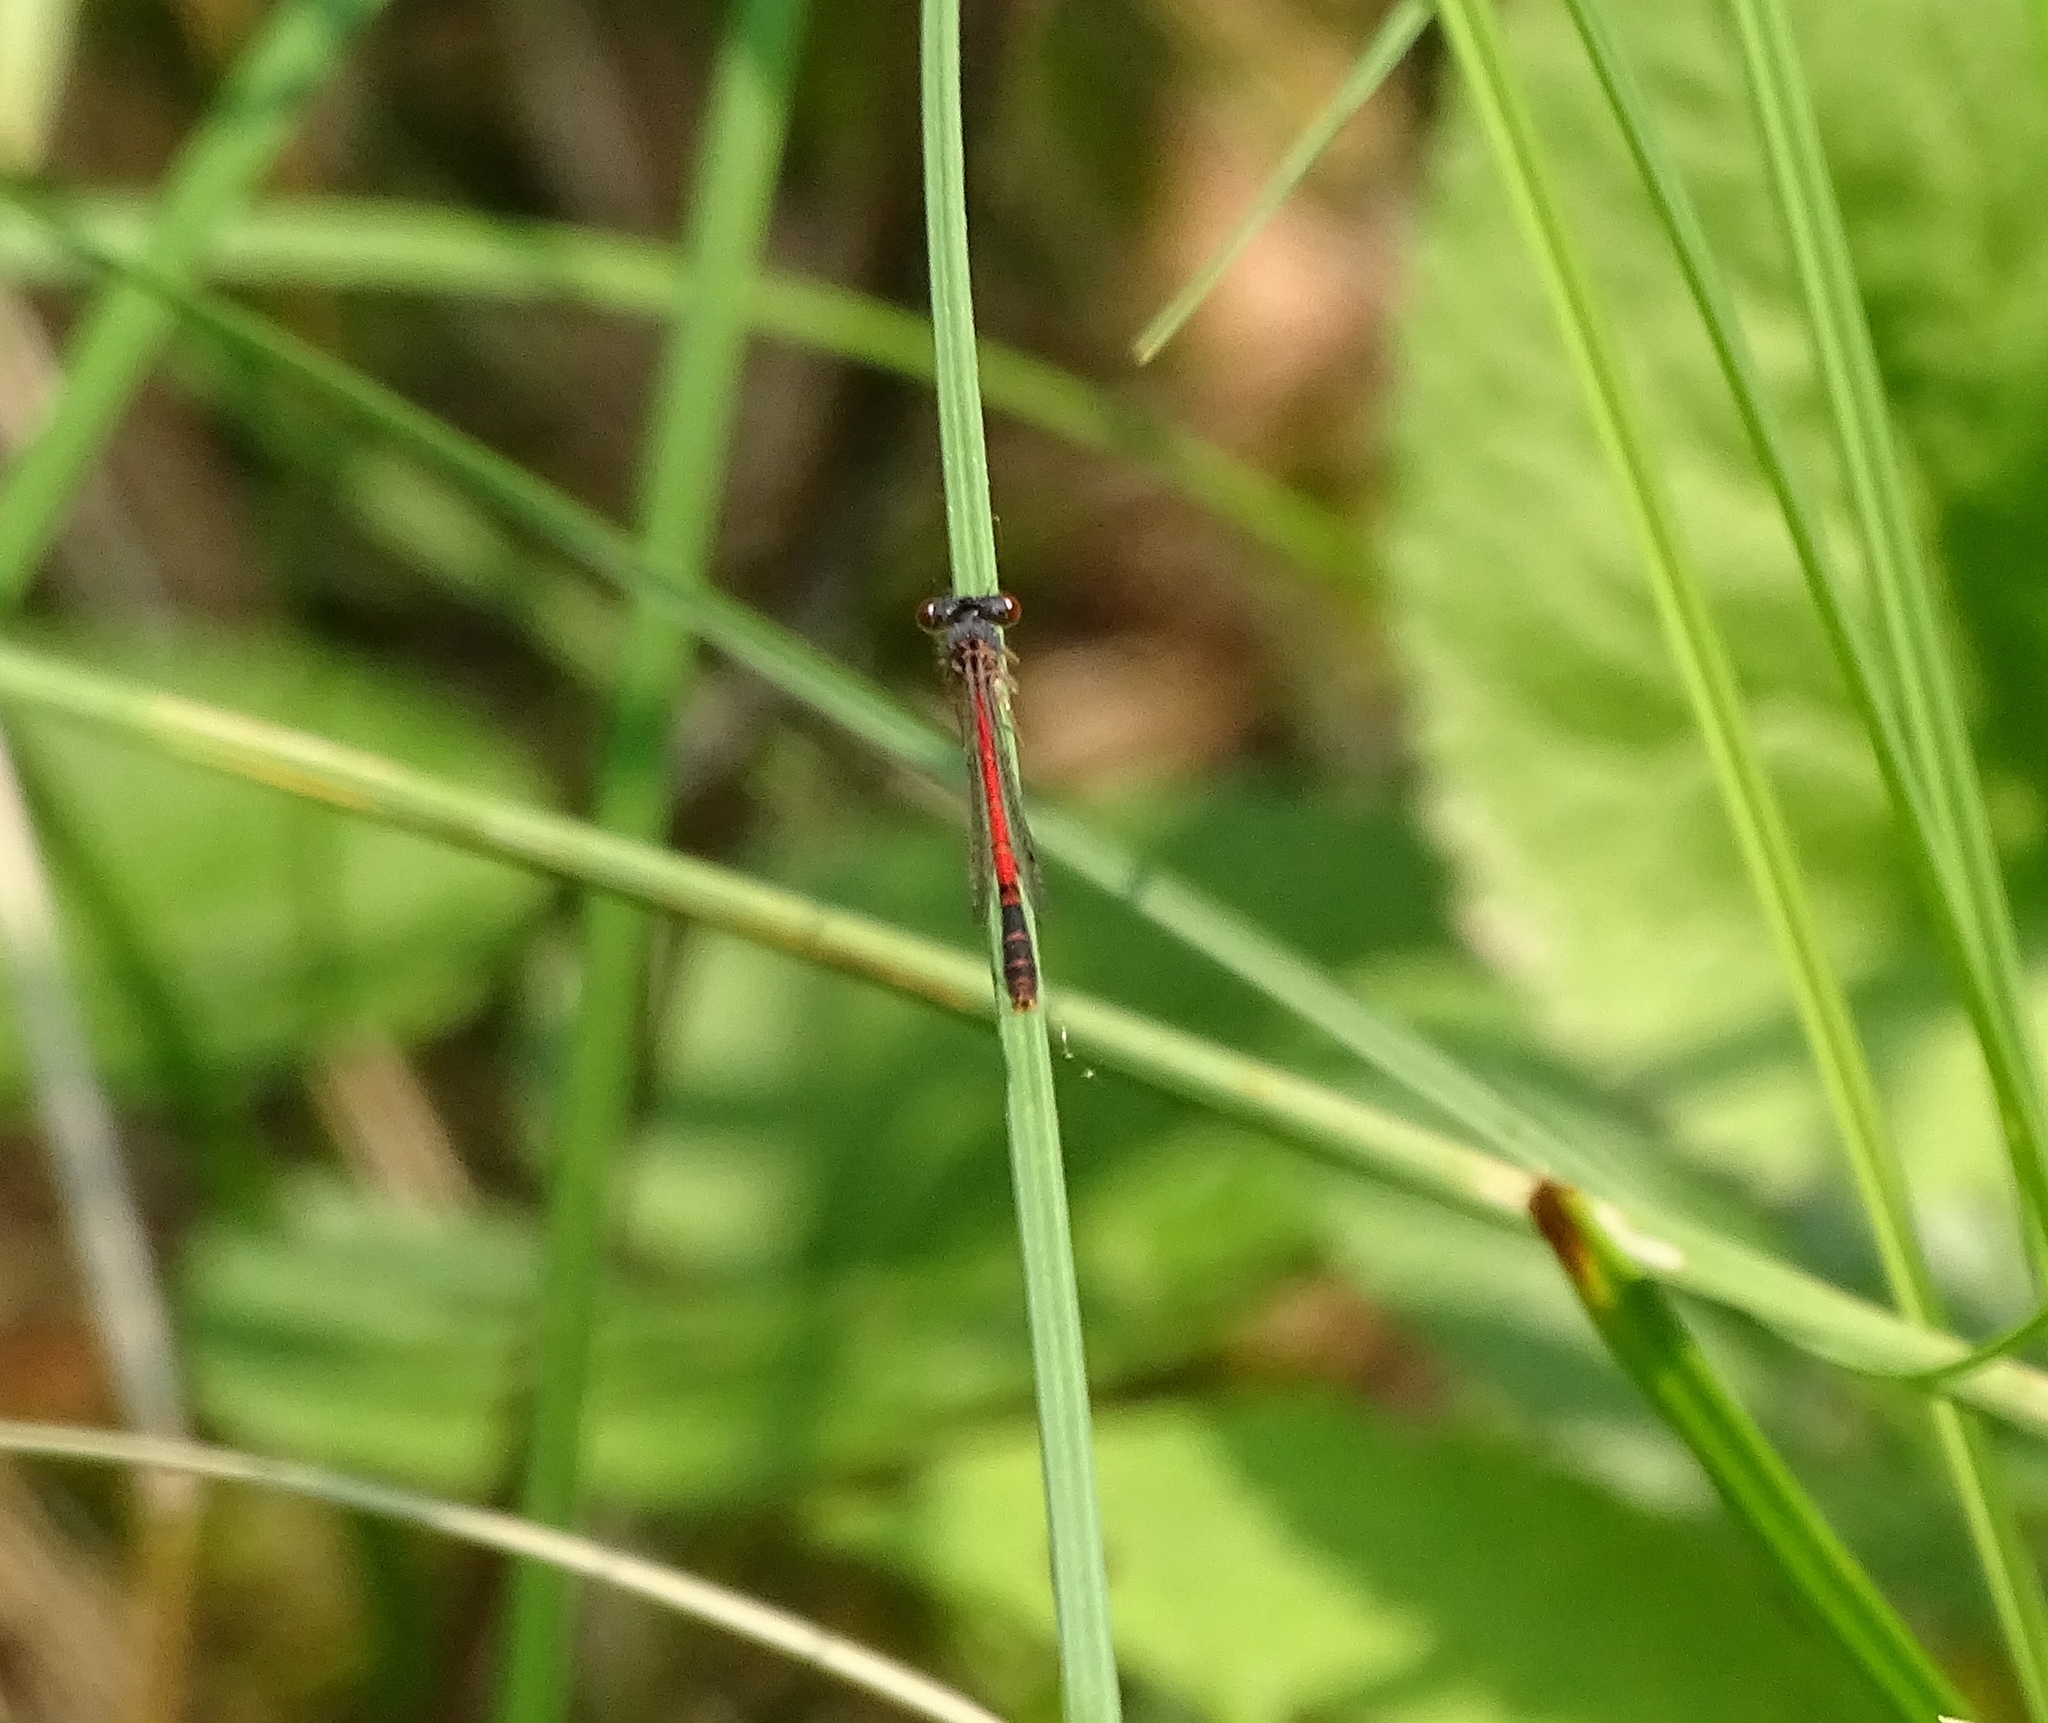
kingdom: Animalia
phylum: Arthropoda
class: Insecta
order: Odonata
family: Coenagrionidae
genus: Amphiagrion
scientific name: Amphiagrion saucium
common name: Eastern red damsel
